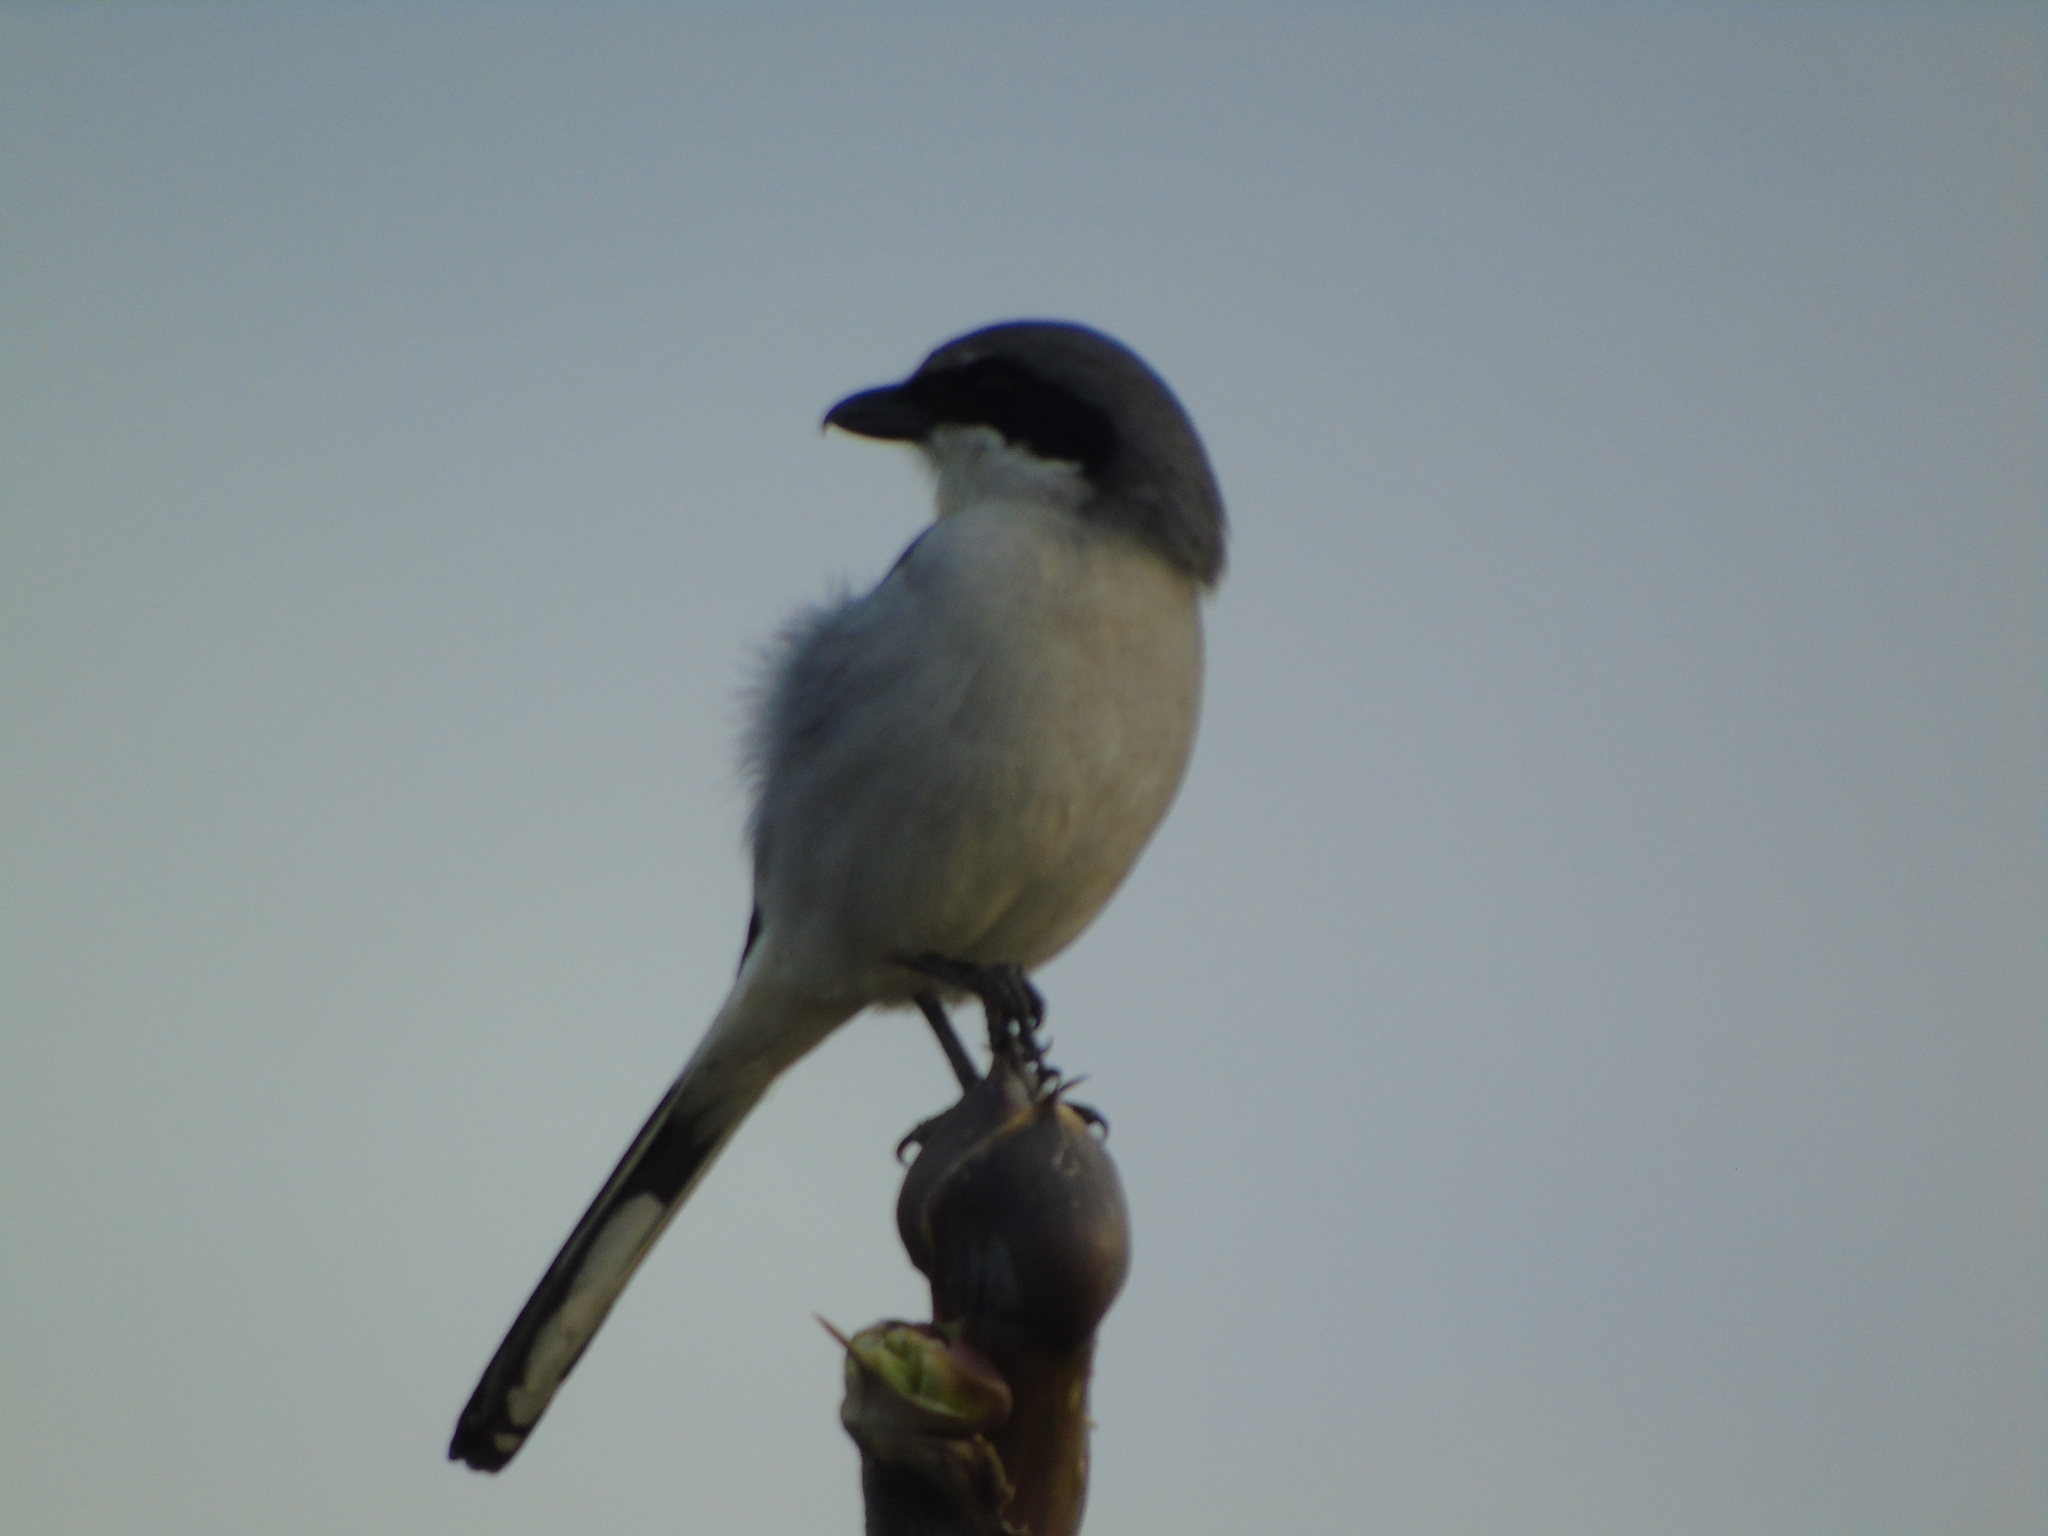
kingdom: Animalia
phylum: Chordata
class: Aves
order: Passeriformes
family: Laniidae
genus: Lanius
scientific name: Lanius ludovicianus
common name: Loggerhead shrike
